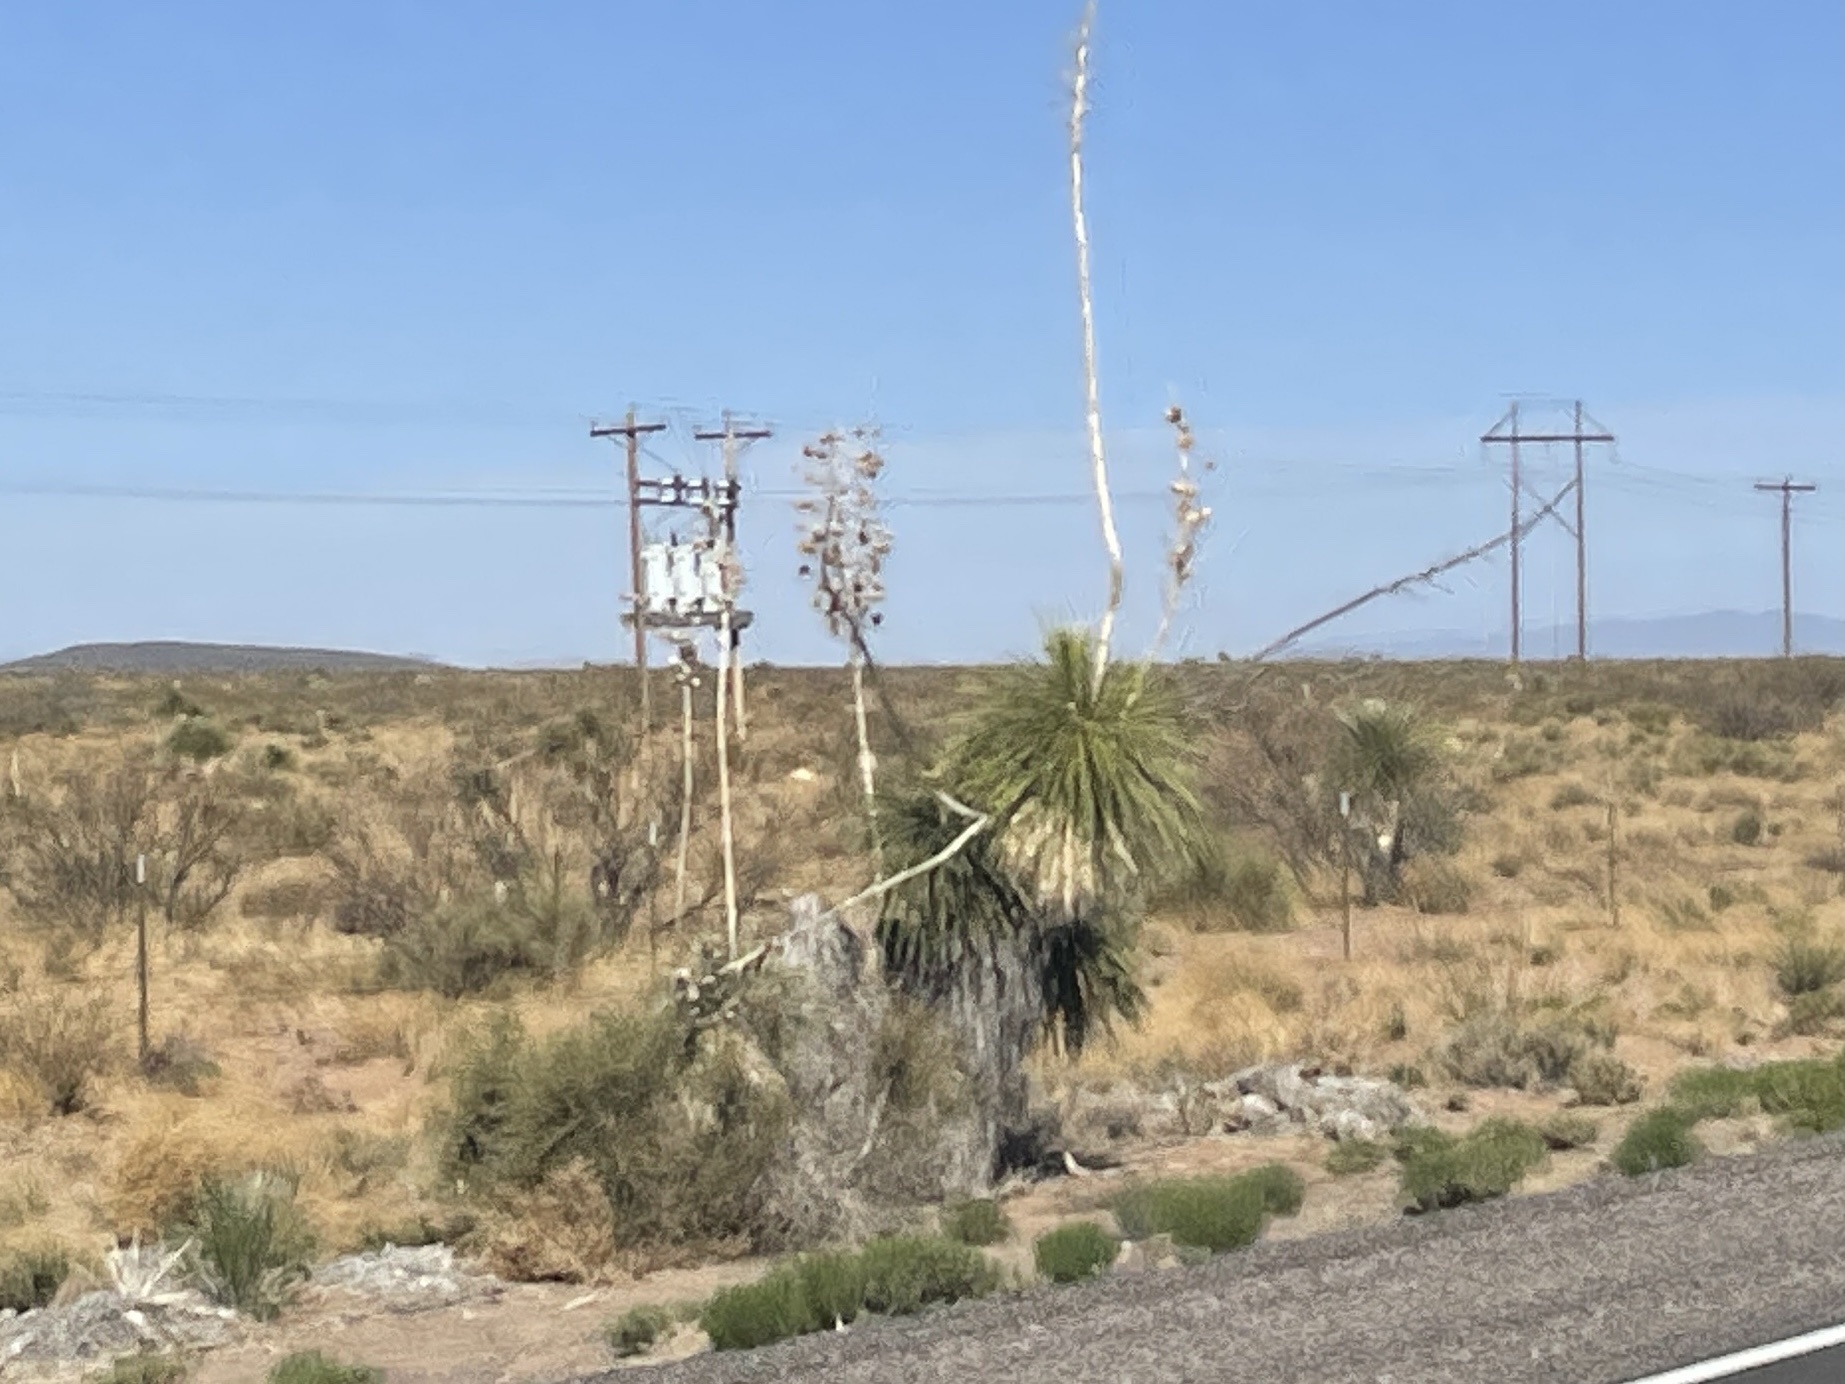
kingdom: Plantae
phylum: Tracheophyta
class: Liliopsida
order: Asparagales
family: Asparagaceae
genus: Yucca
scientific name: Yucca elata
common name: Palmella
